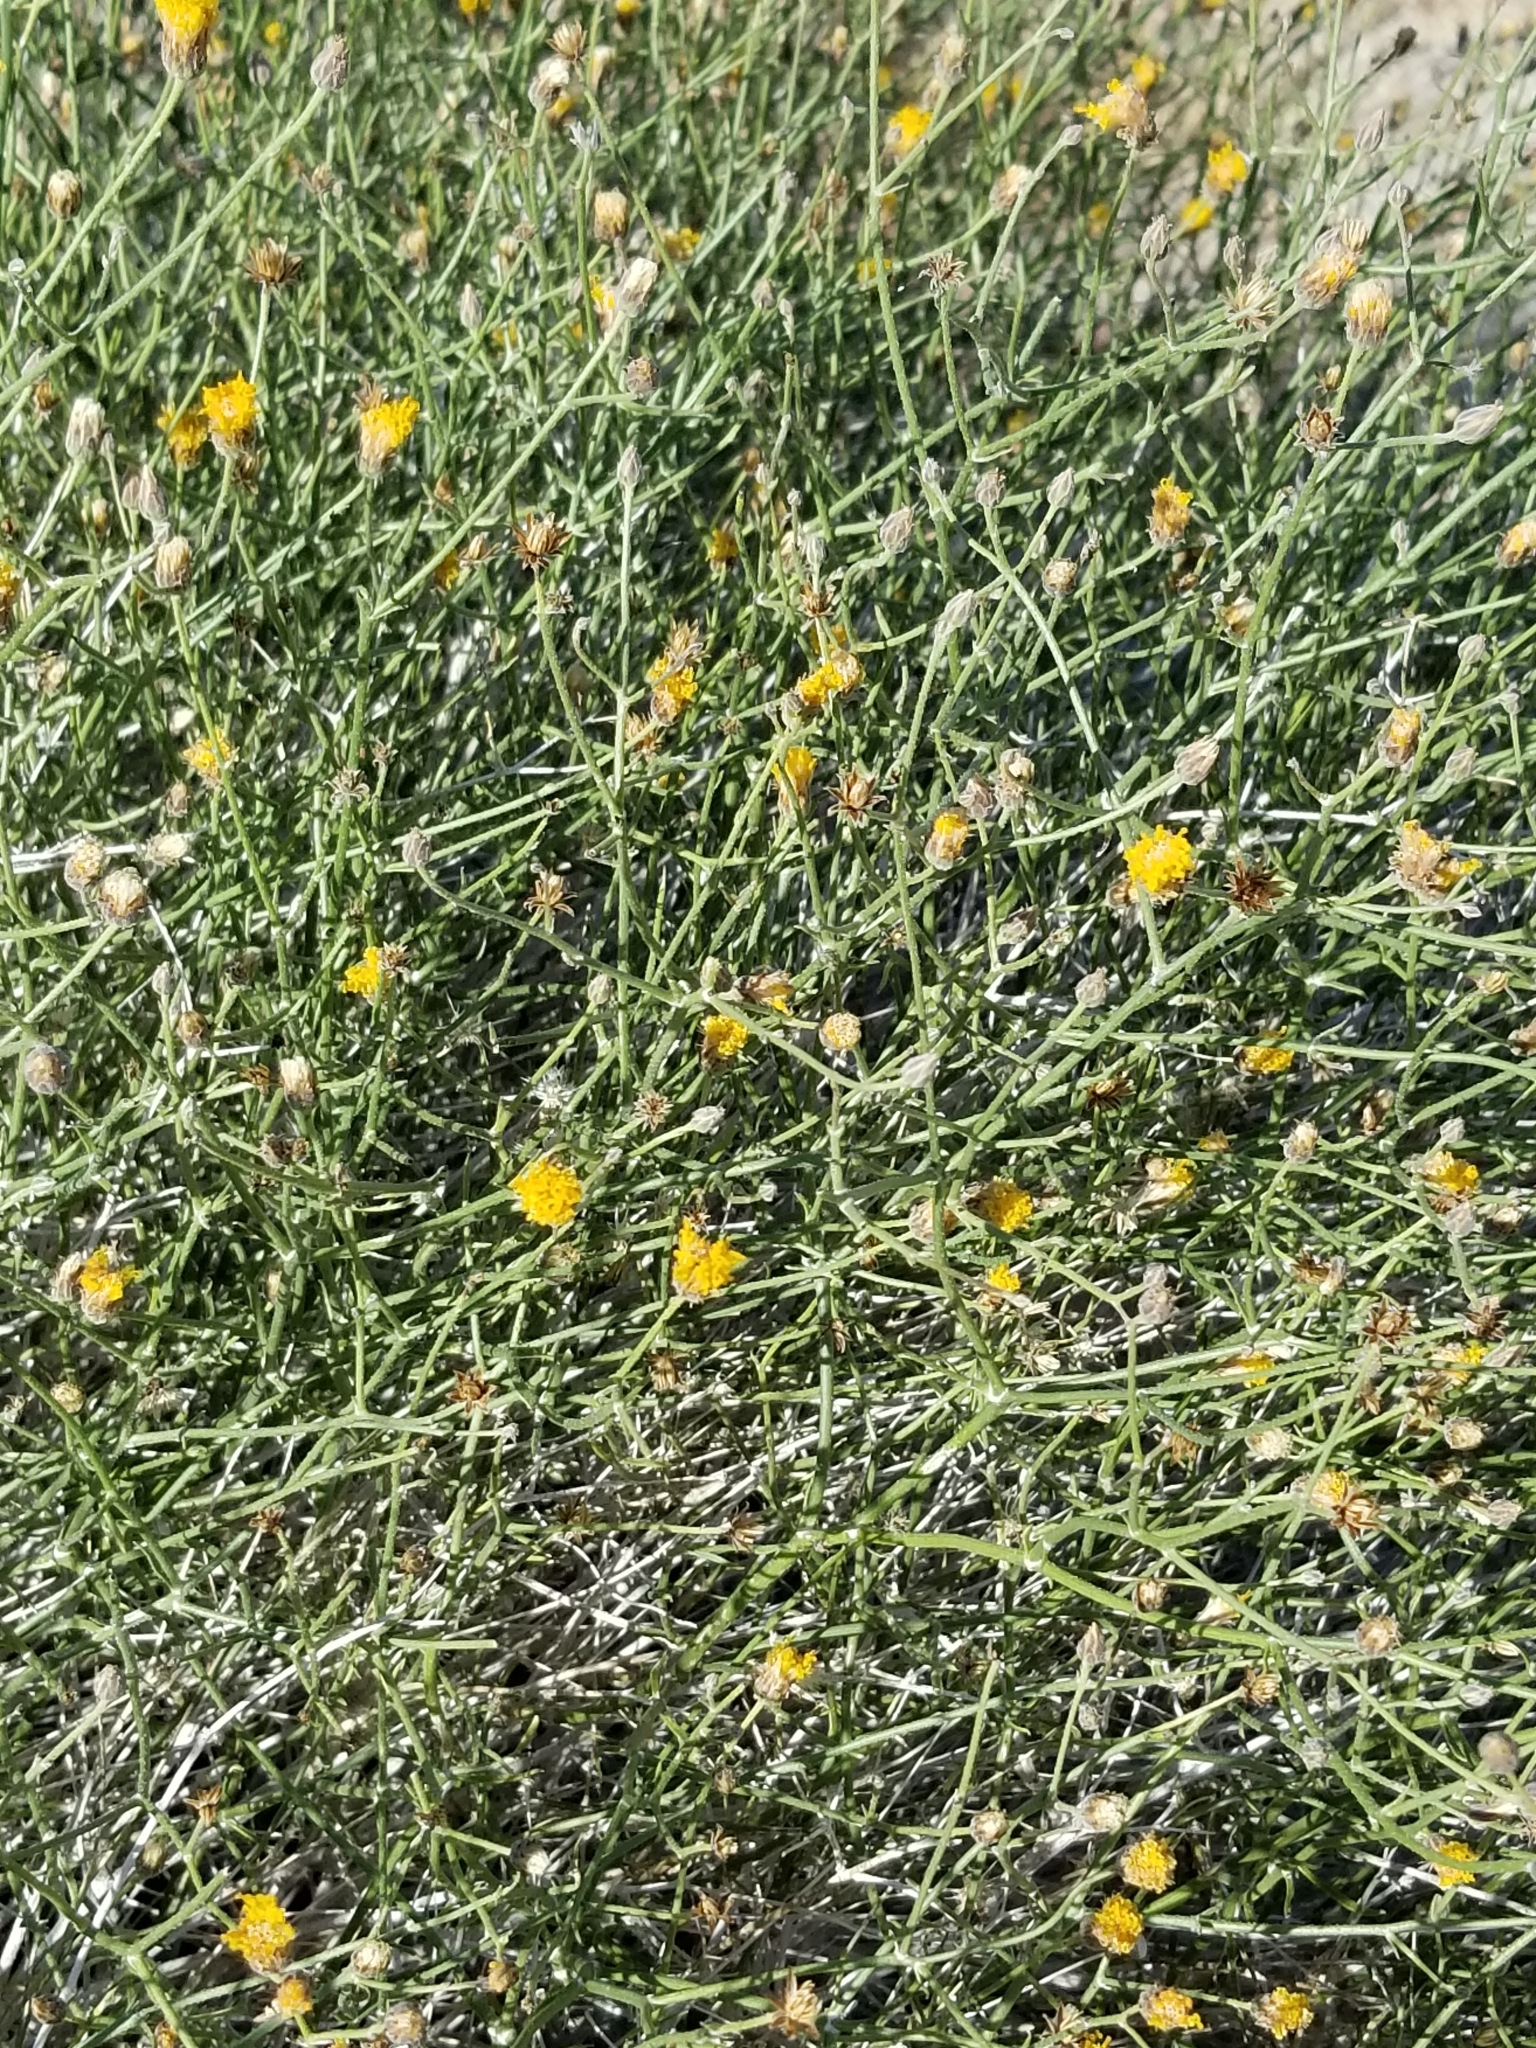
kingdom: Plantae
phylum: Tracheophyta
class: Magnoliopsida
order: Asterales
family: Asteraceae
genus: Bebbia
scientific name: Bebbia juncea
